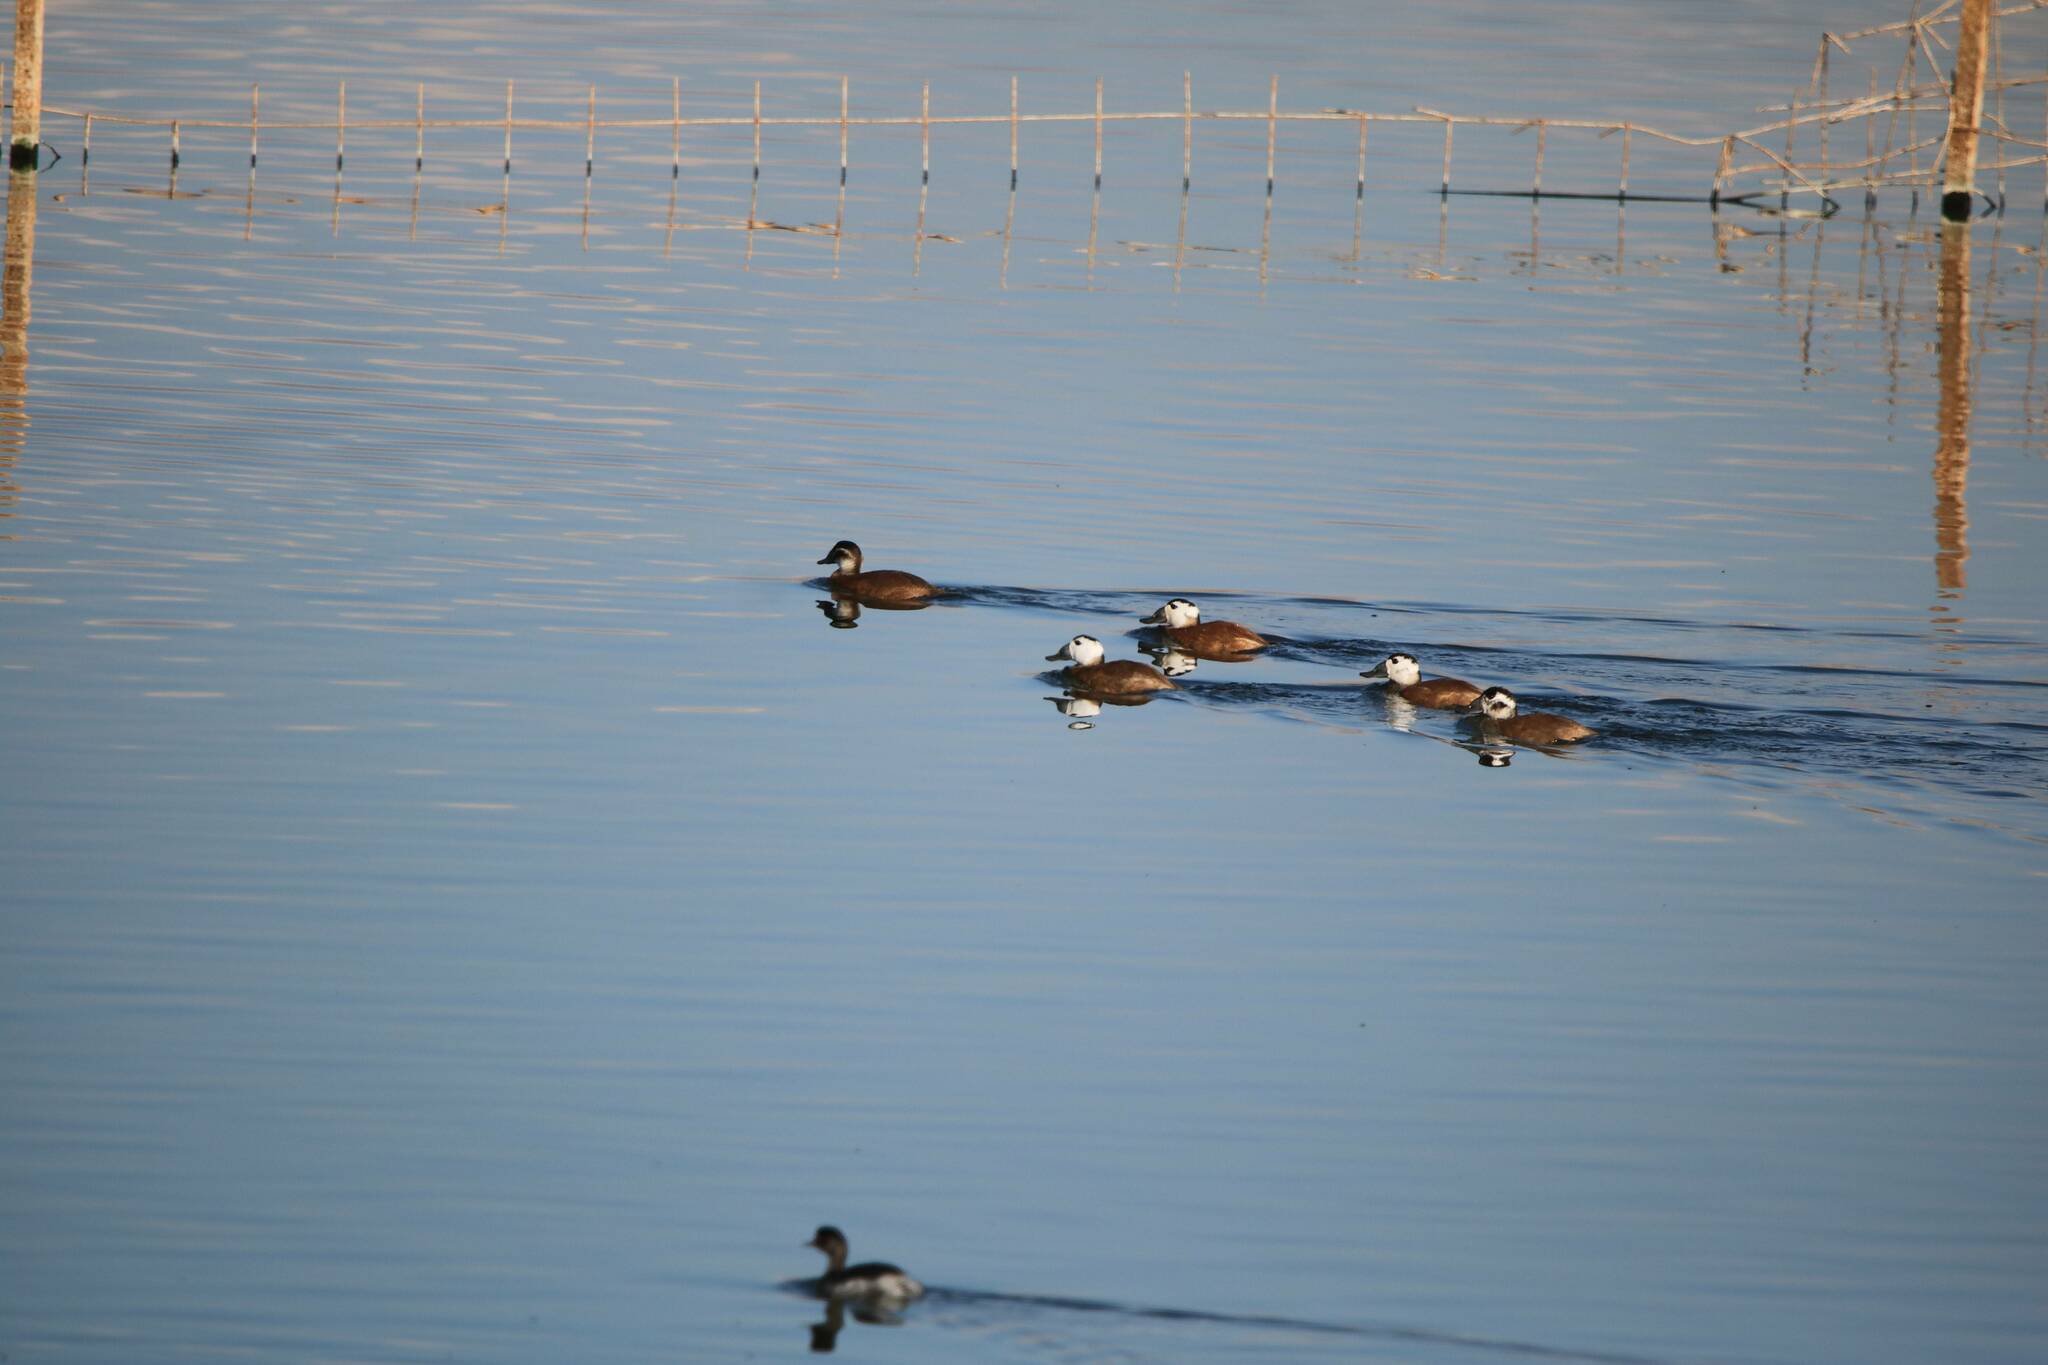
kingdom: Animalia
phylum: Chordata
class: Aves
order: Anseriformes
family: Anatidae
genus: Oxyura
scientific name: Oxyura leucocephala
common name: White-headed duck
